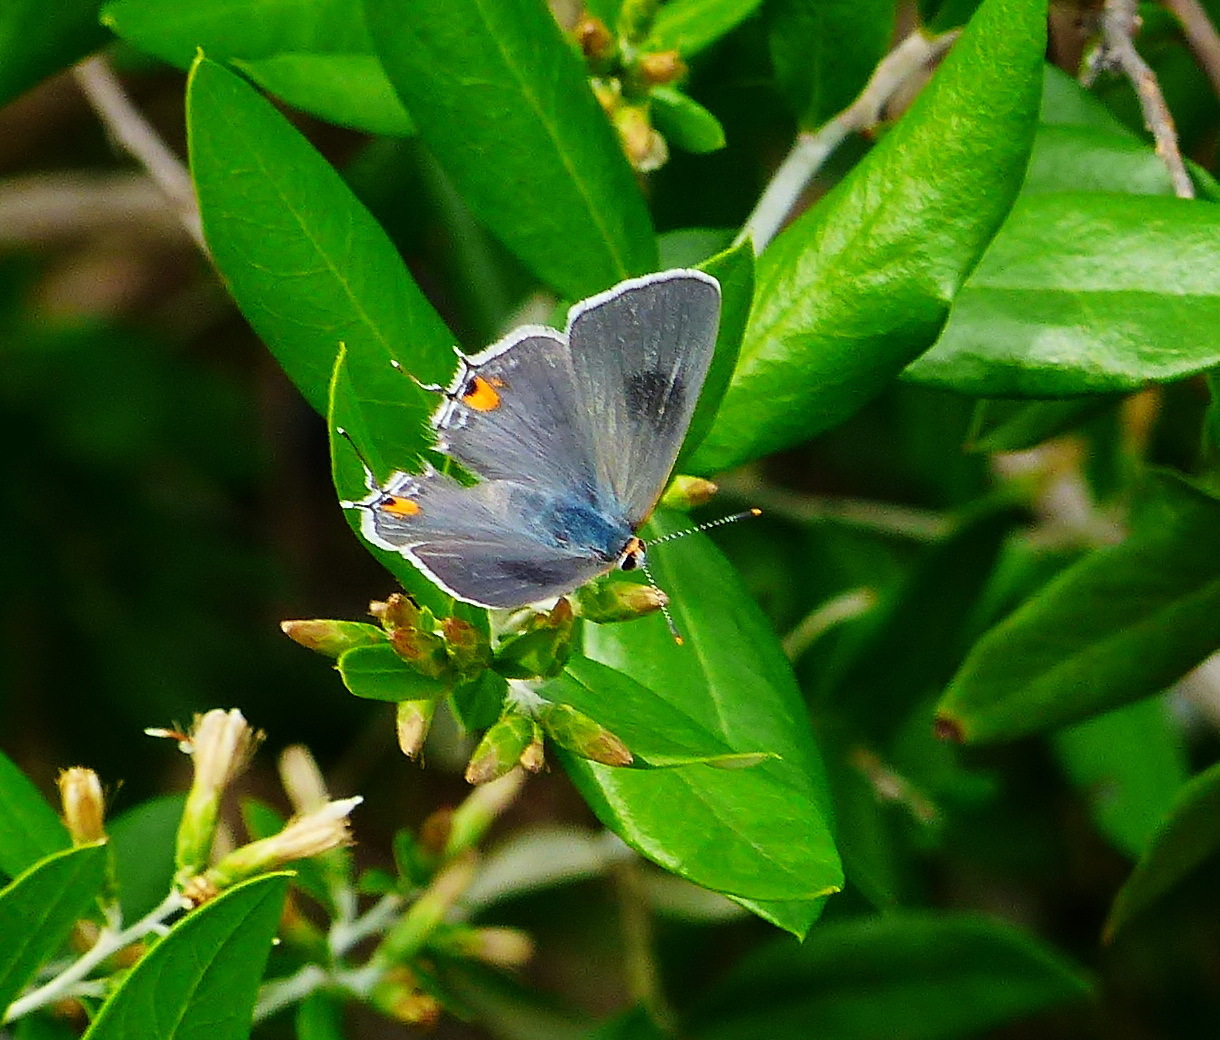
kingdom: Animalia
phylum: Arthropoda
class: Insecta
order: Lepidoptera
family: Lycaenidae
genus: Strymon
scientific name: Strymon melinus
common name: Gray hairstreak
